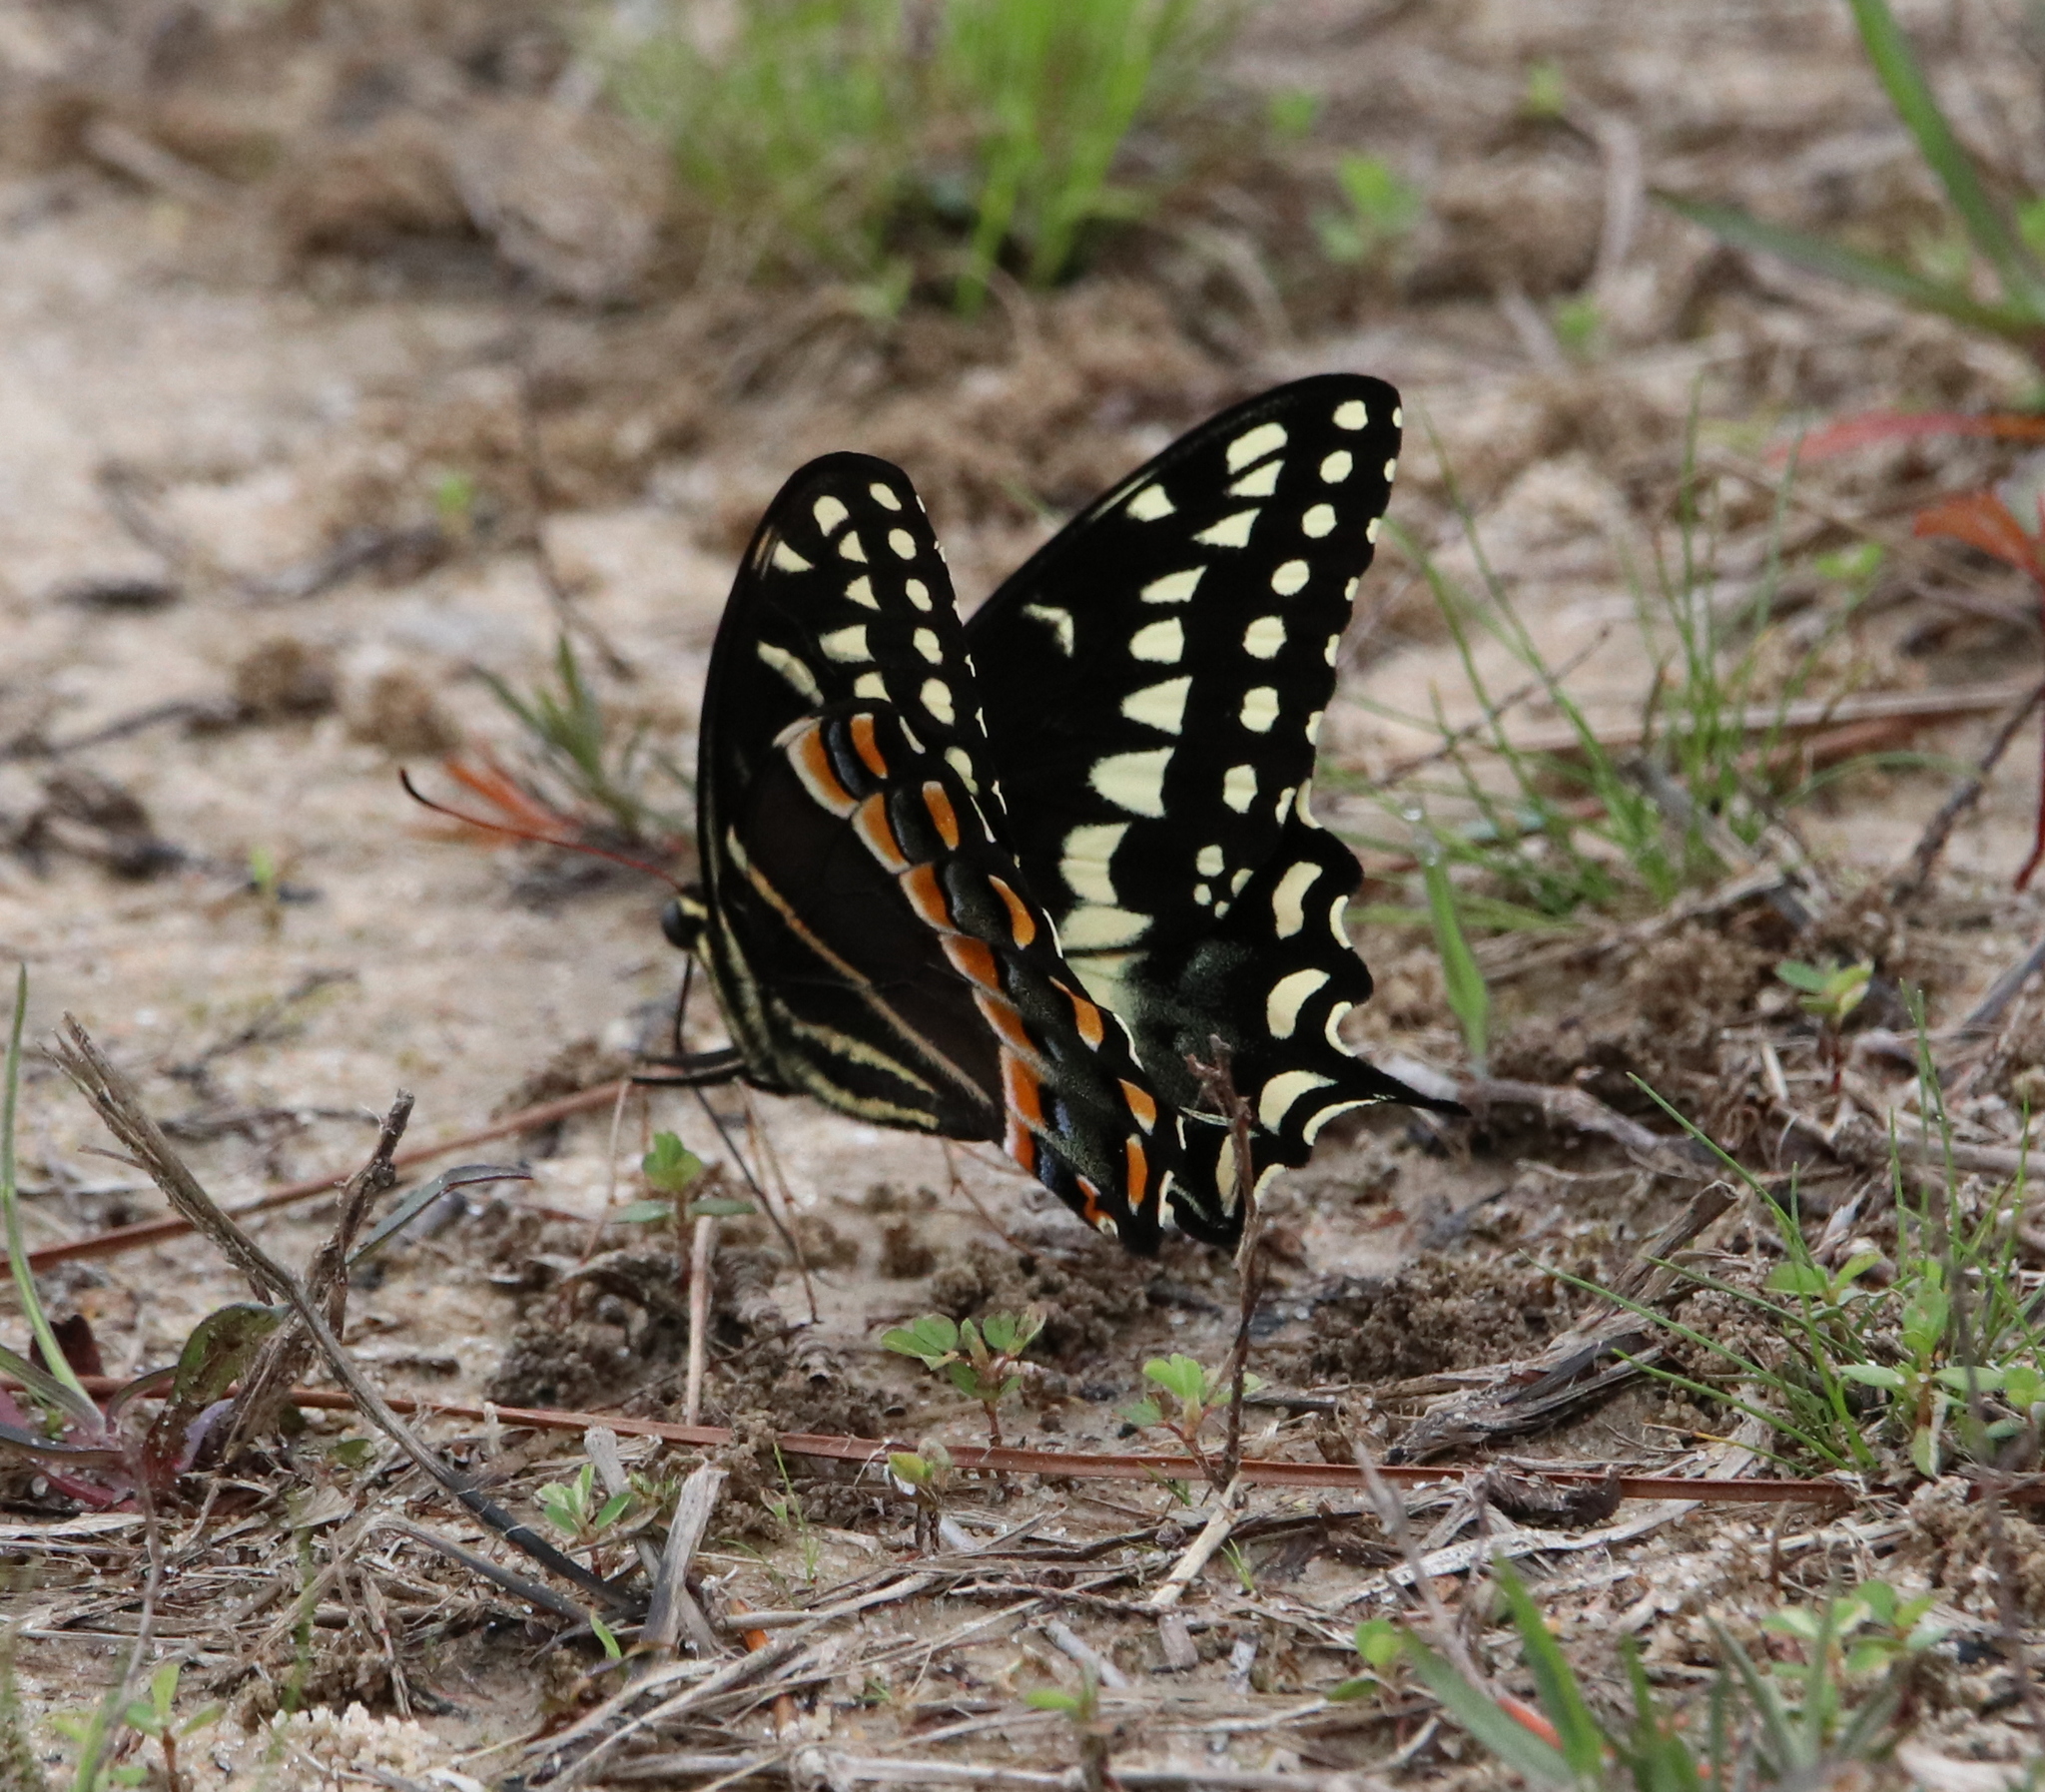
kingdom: Animalia
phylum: Arthropoda
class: Insecta
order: Lepidoptera
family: Papilionidae
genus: Papilio
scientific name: Papilio palamedes
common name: Palamedes swallowtail
